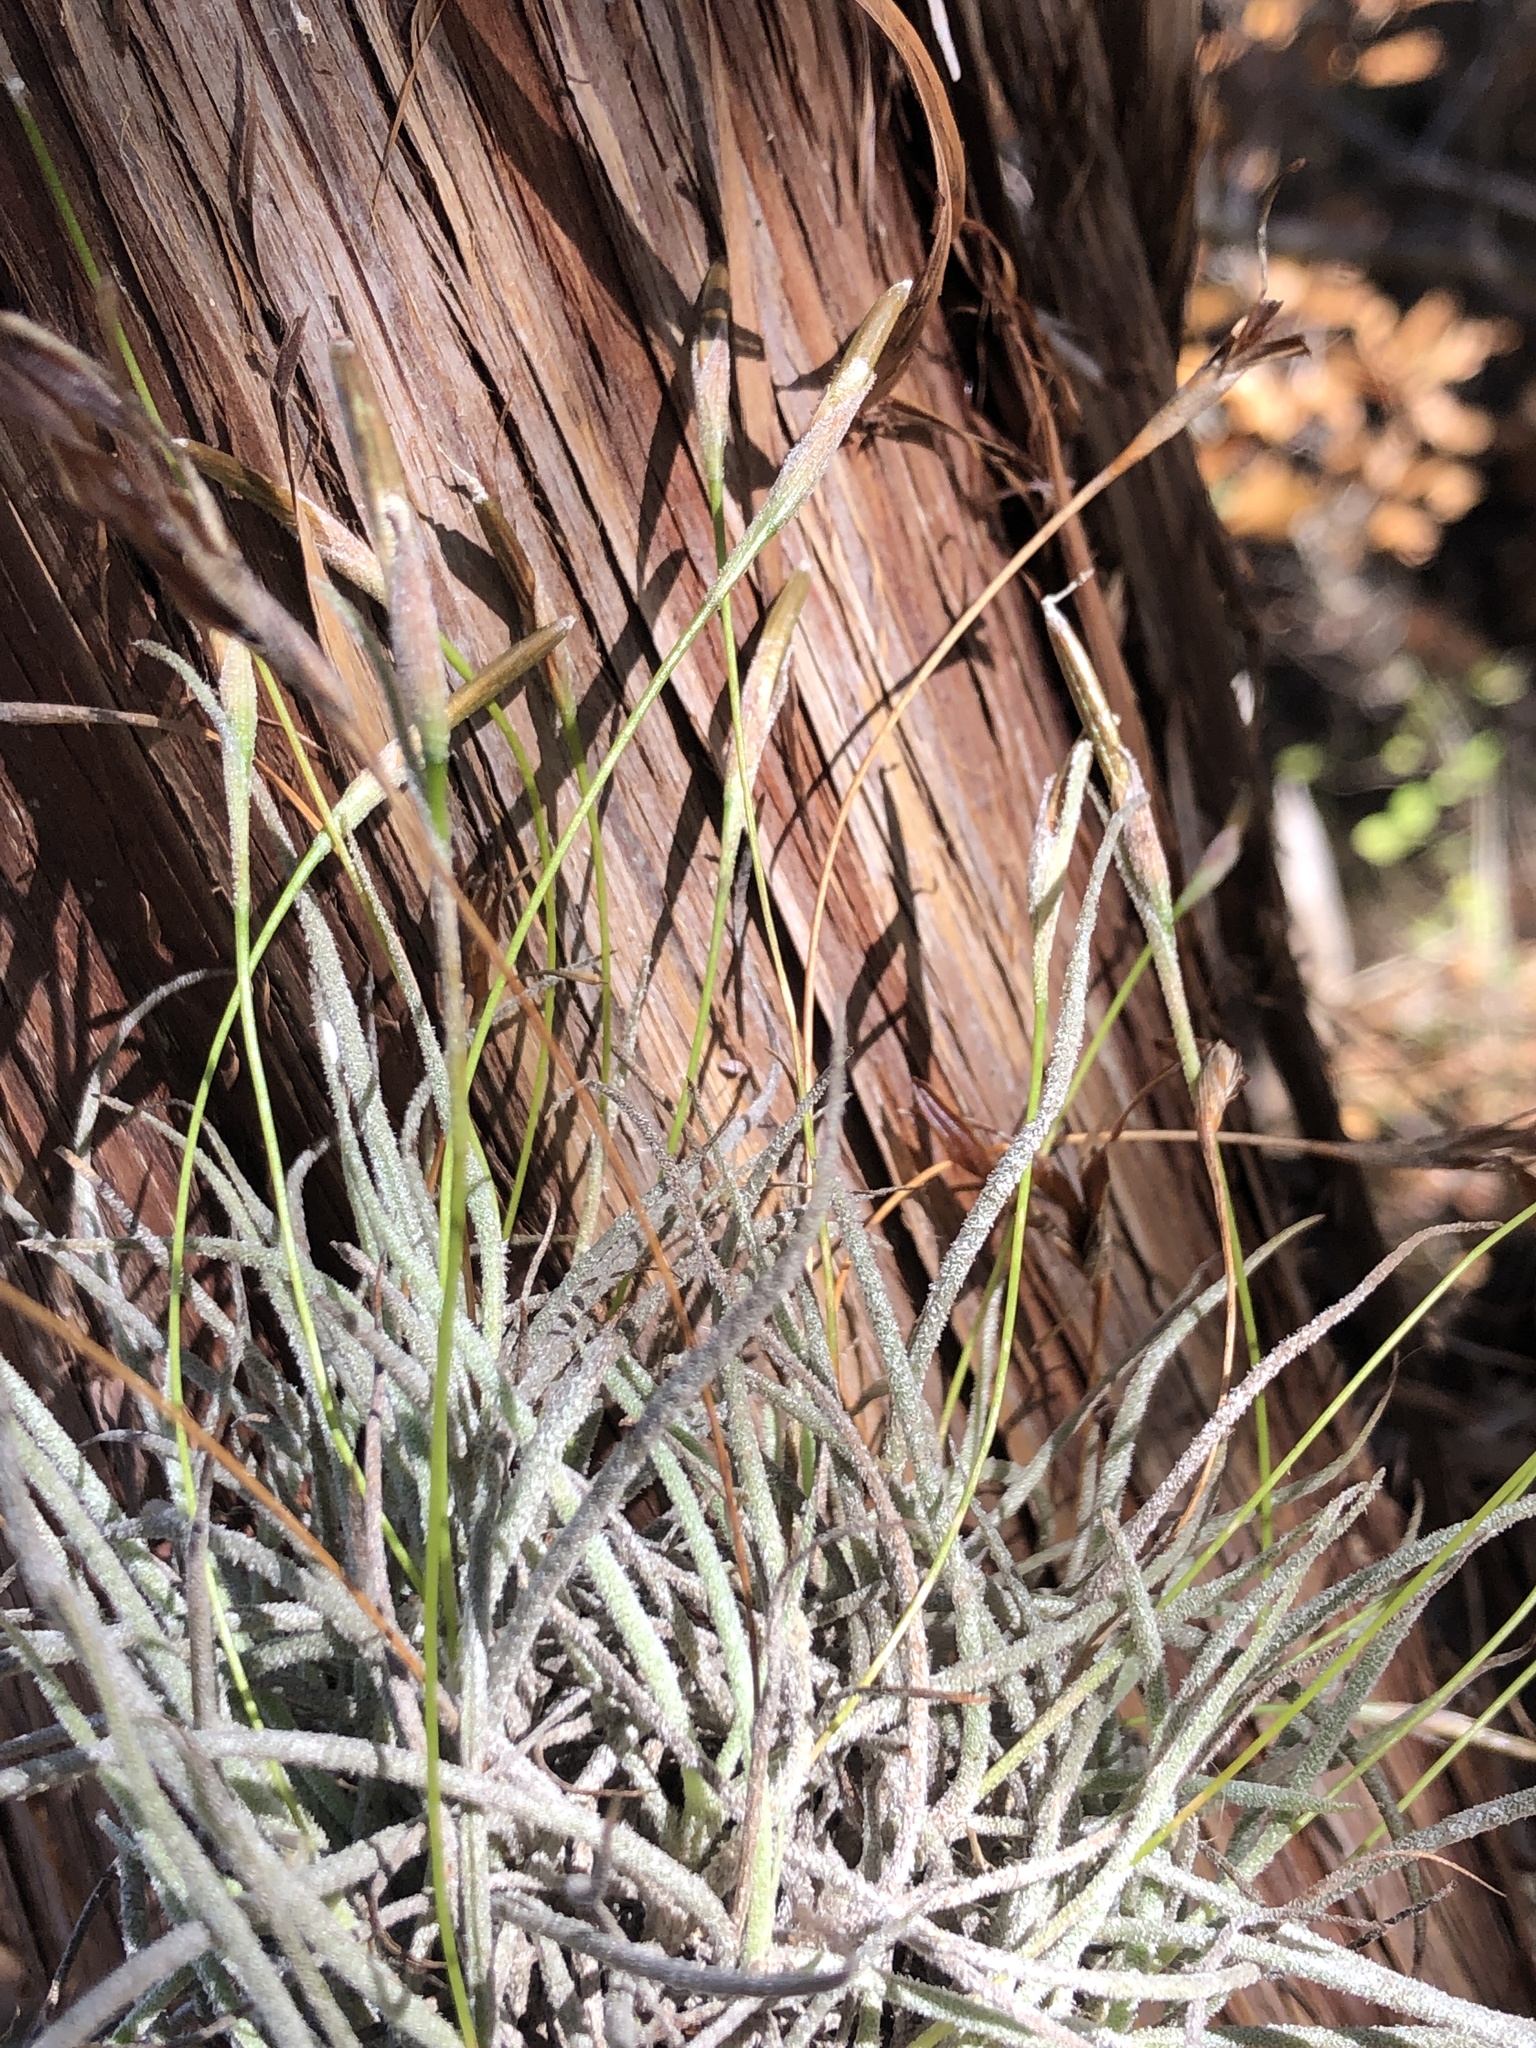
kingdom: Plantae
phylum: Tracheophyta
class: Liliopsida
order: Poales
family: Bromeliaceae
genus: Tillandsia
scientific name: Tillandsia recurvata
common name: Small ballmoss
